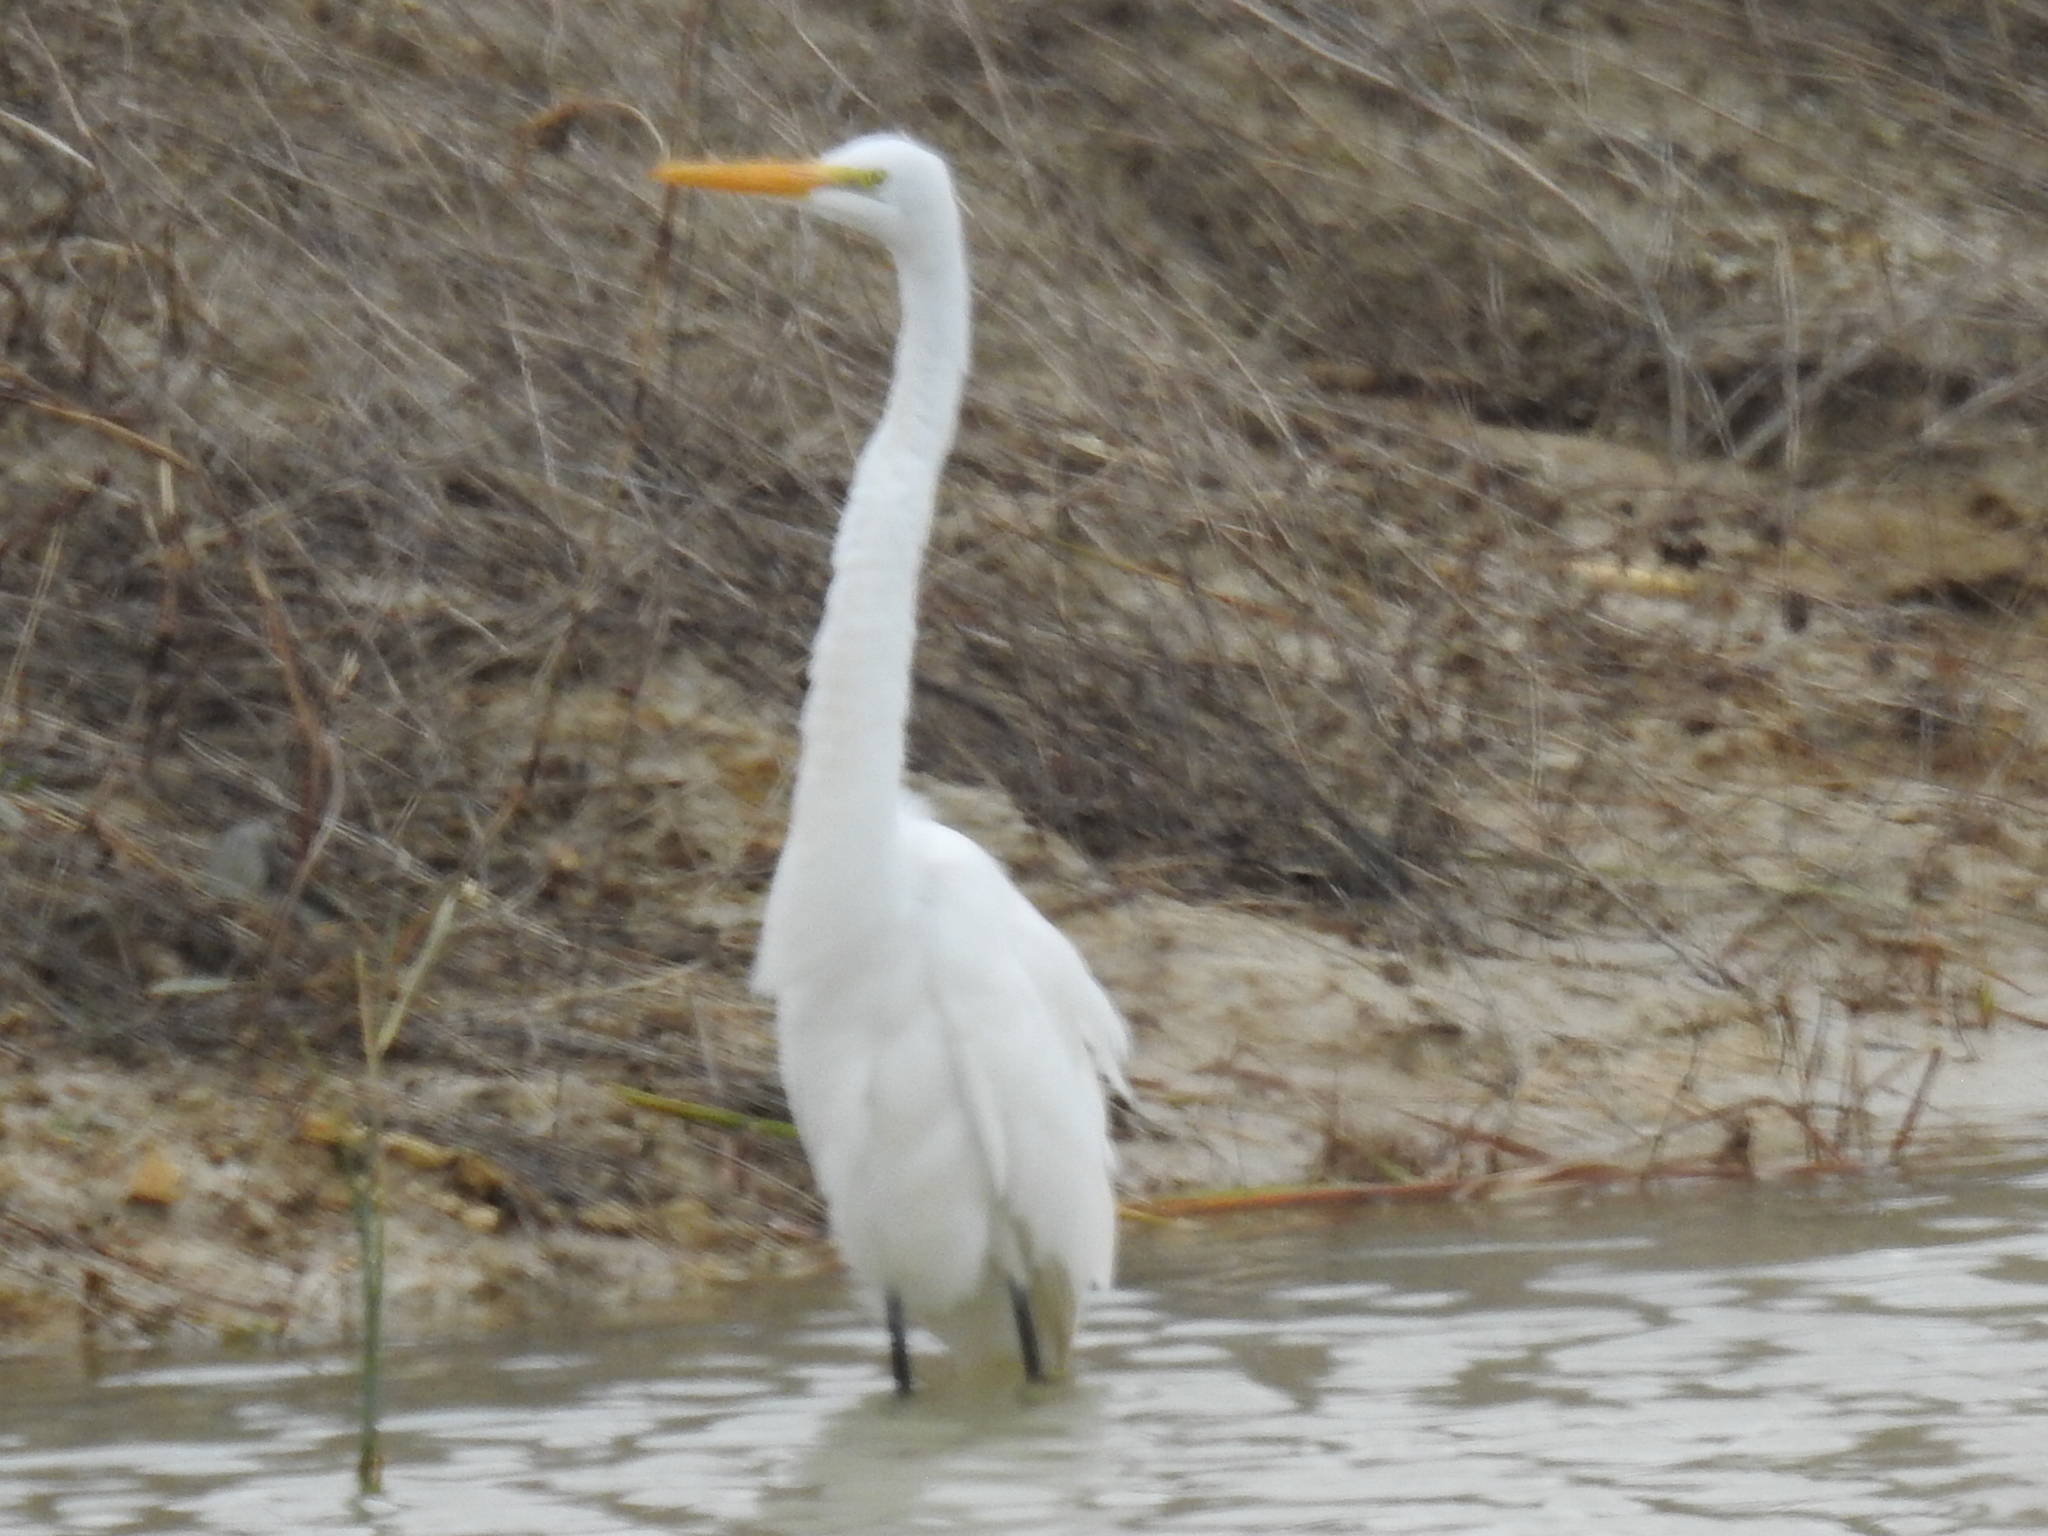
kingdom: Animalia
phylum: Chordata
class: Aves
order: Pelecaniformes
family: Ardeidae
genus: Ardea
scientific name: Ardea alba
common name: Great egret
